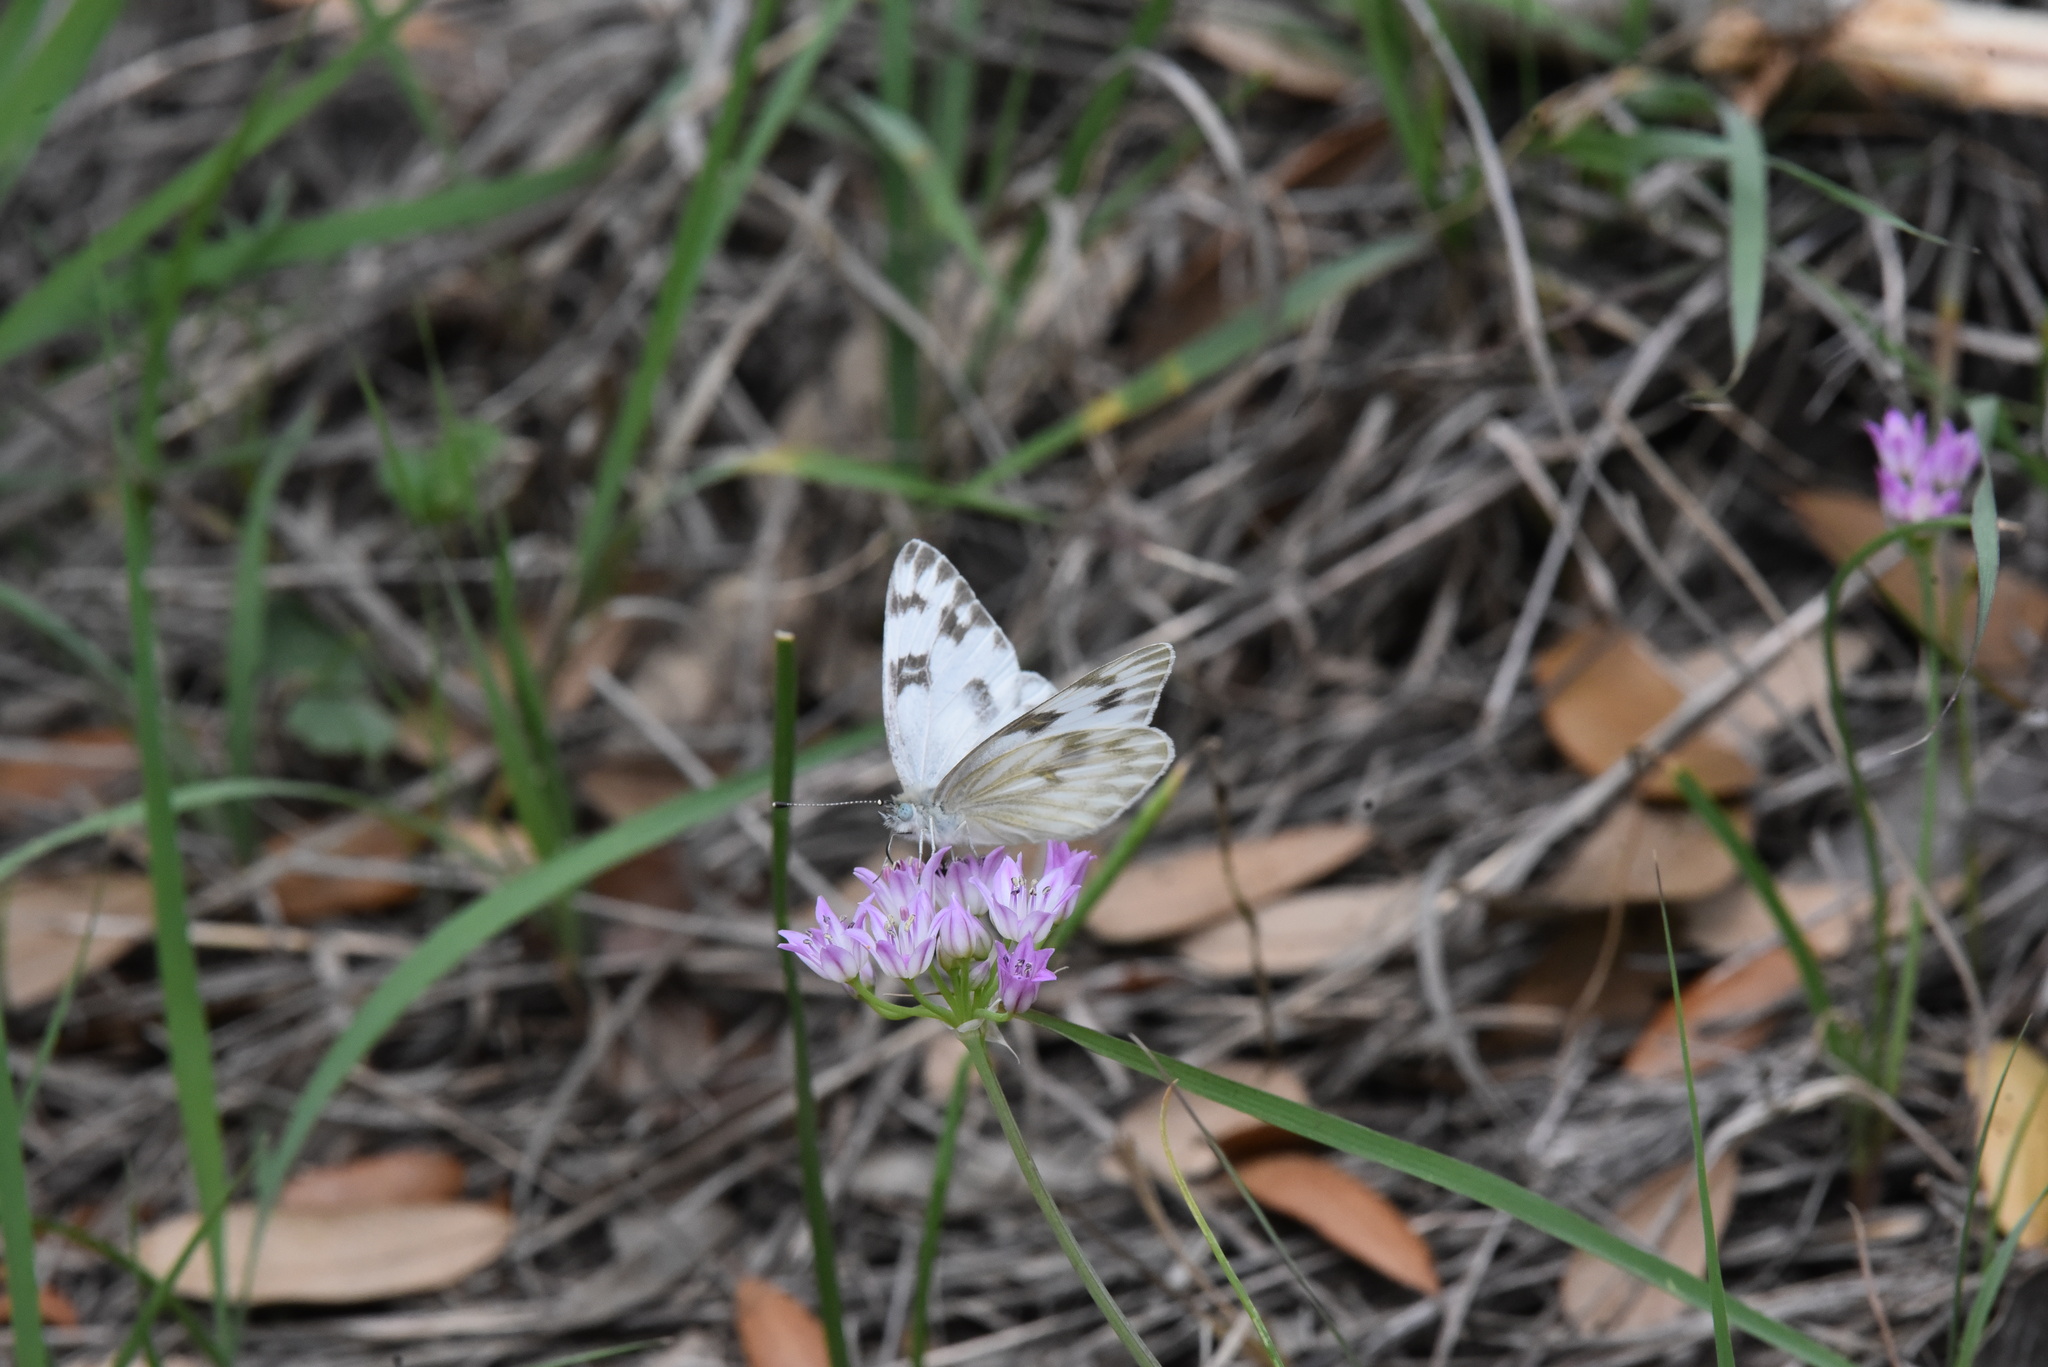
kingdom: Animalia
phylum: Arthropoda
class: Insecta
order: Lepidoptera
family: Pieridae
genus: Pontia
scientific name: Pontia protodice
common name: Checkered white
